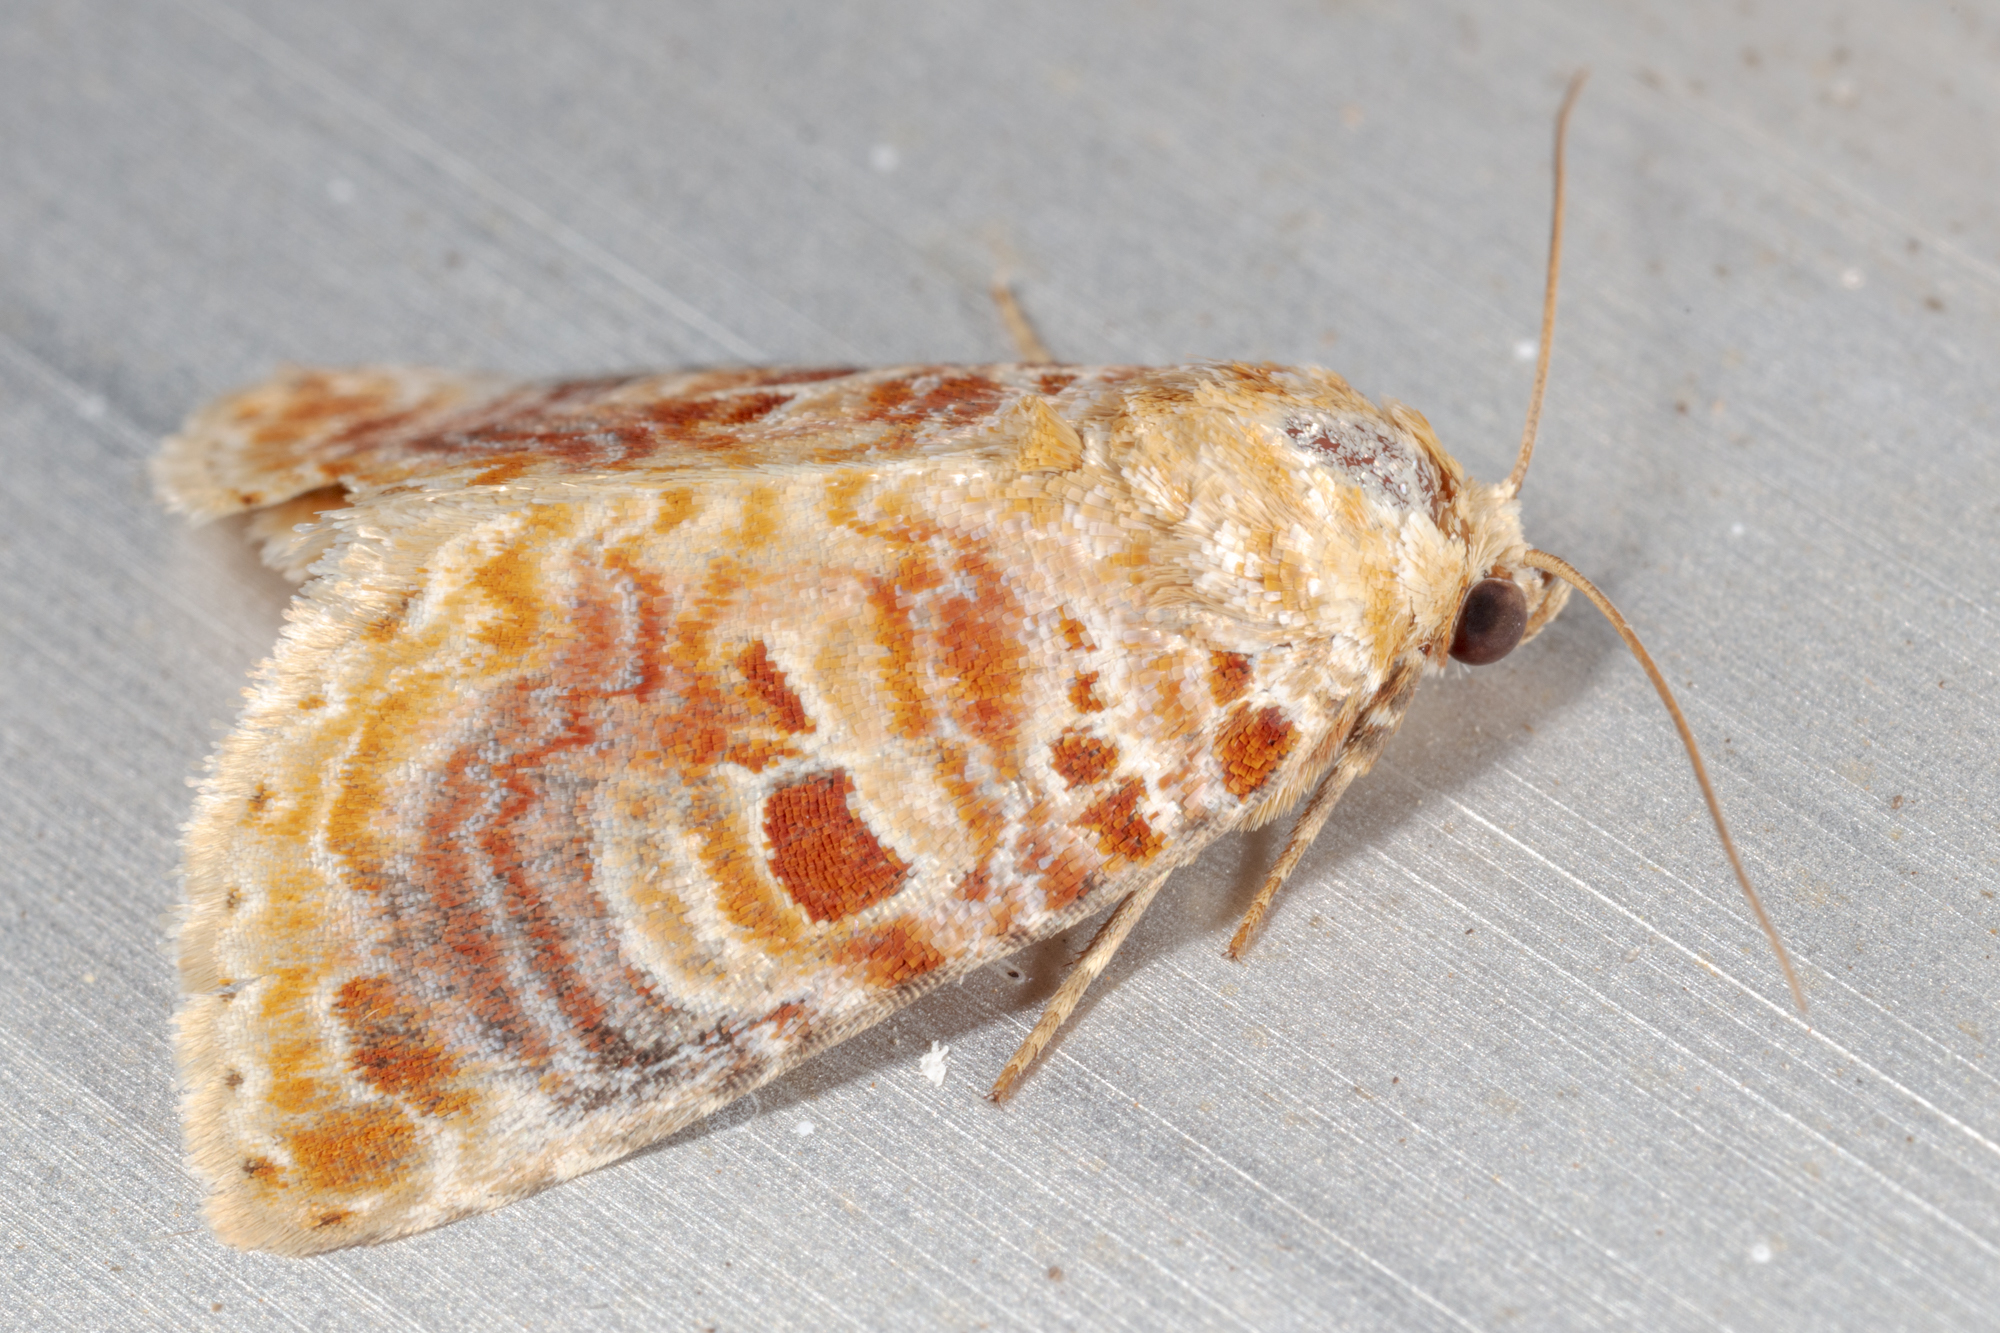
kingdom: Animalia
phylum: Arthropoda
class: Insecta
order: Lepidoptera
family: Noctuidae
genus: Diastema
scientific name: Diastema tigris
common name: Lantana moth
